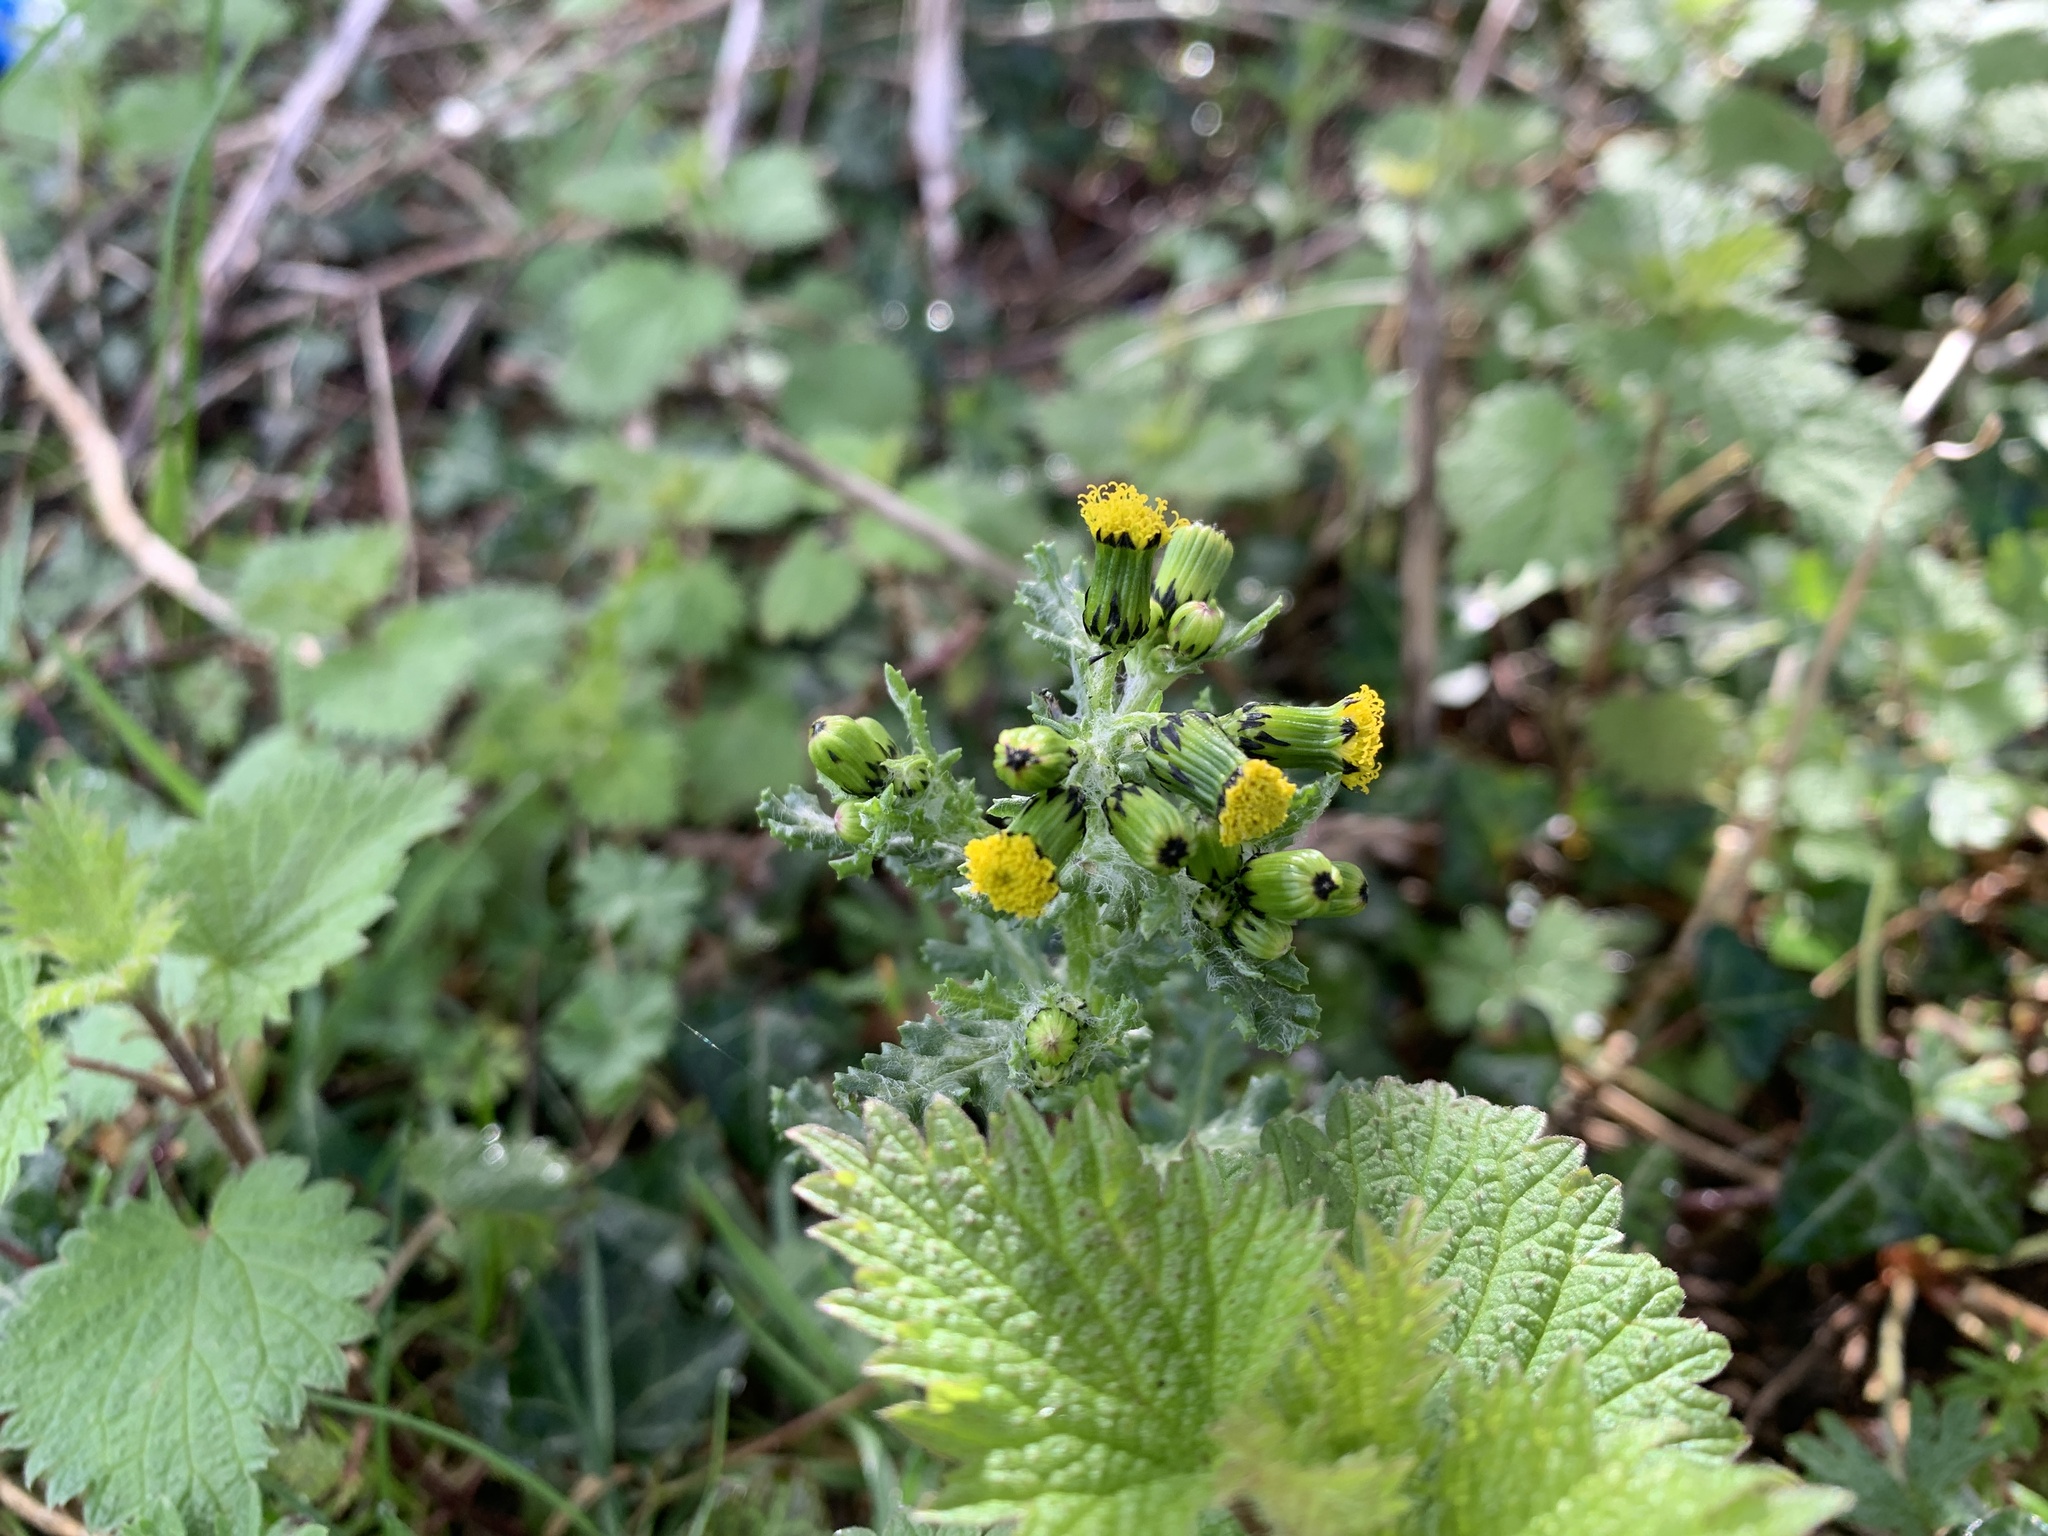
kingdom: Plantae
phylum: Tracheophyta
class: Magnoliopsida
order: Asterales
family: Asteraceae
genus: Senecio
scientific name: Senecio vulgaris
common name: Old-man-in-the-spring
